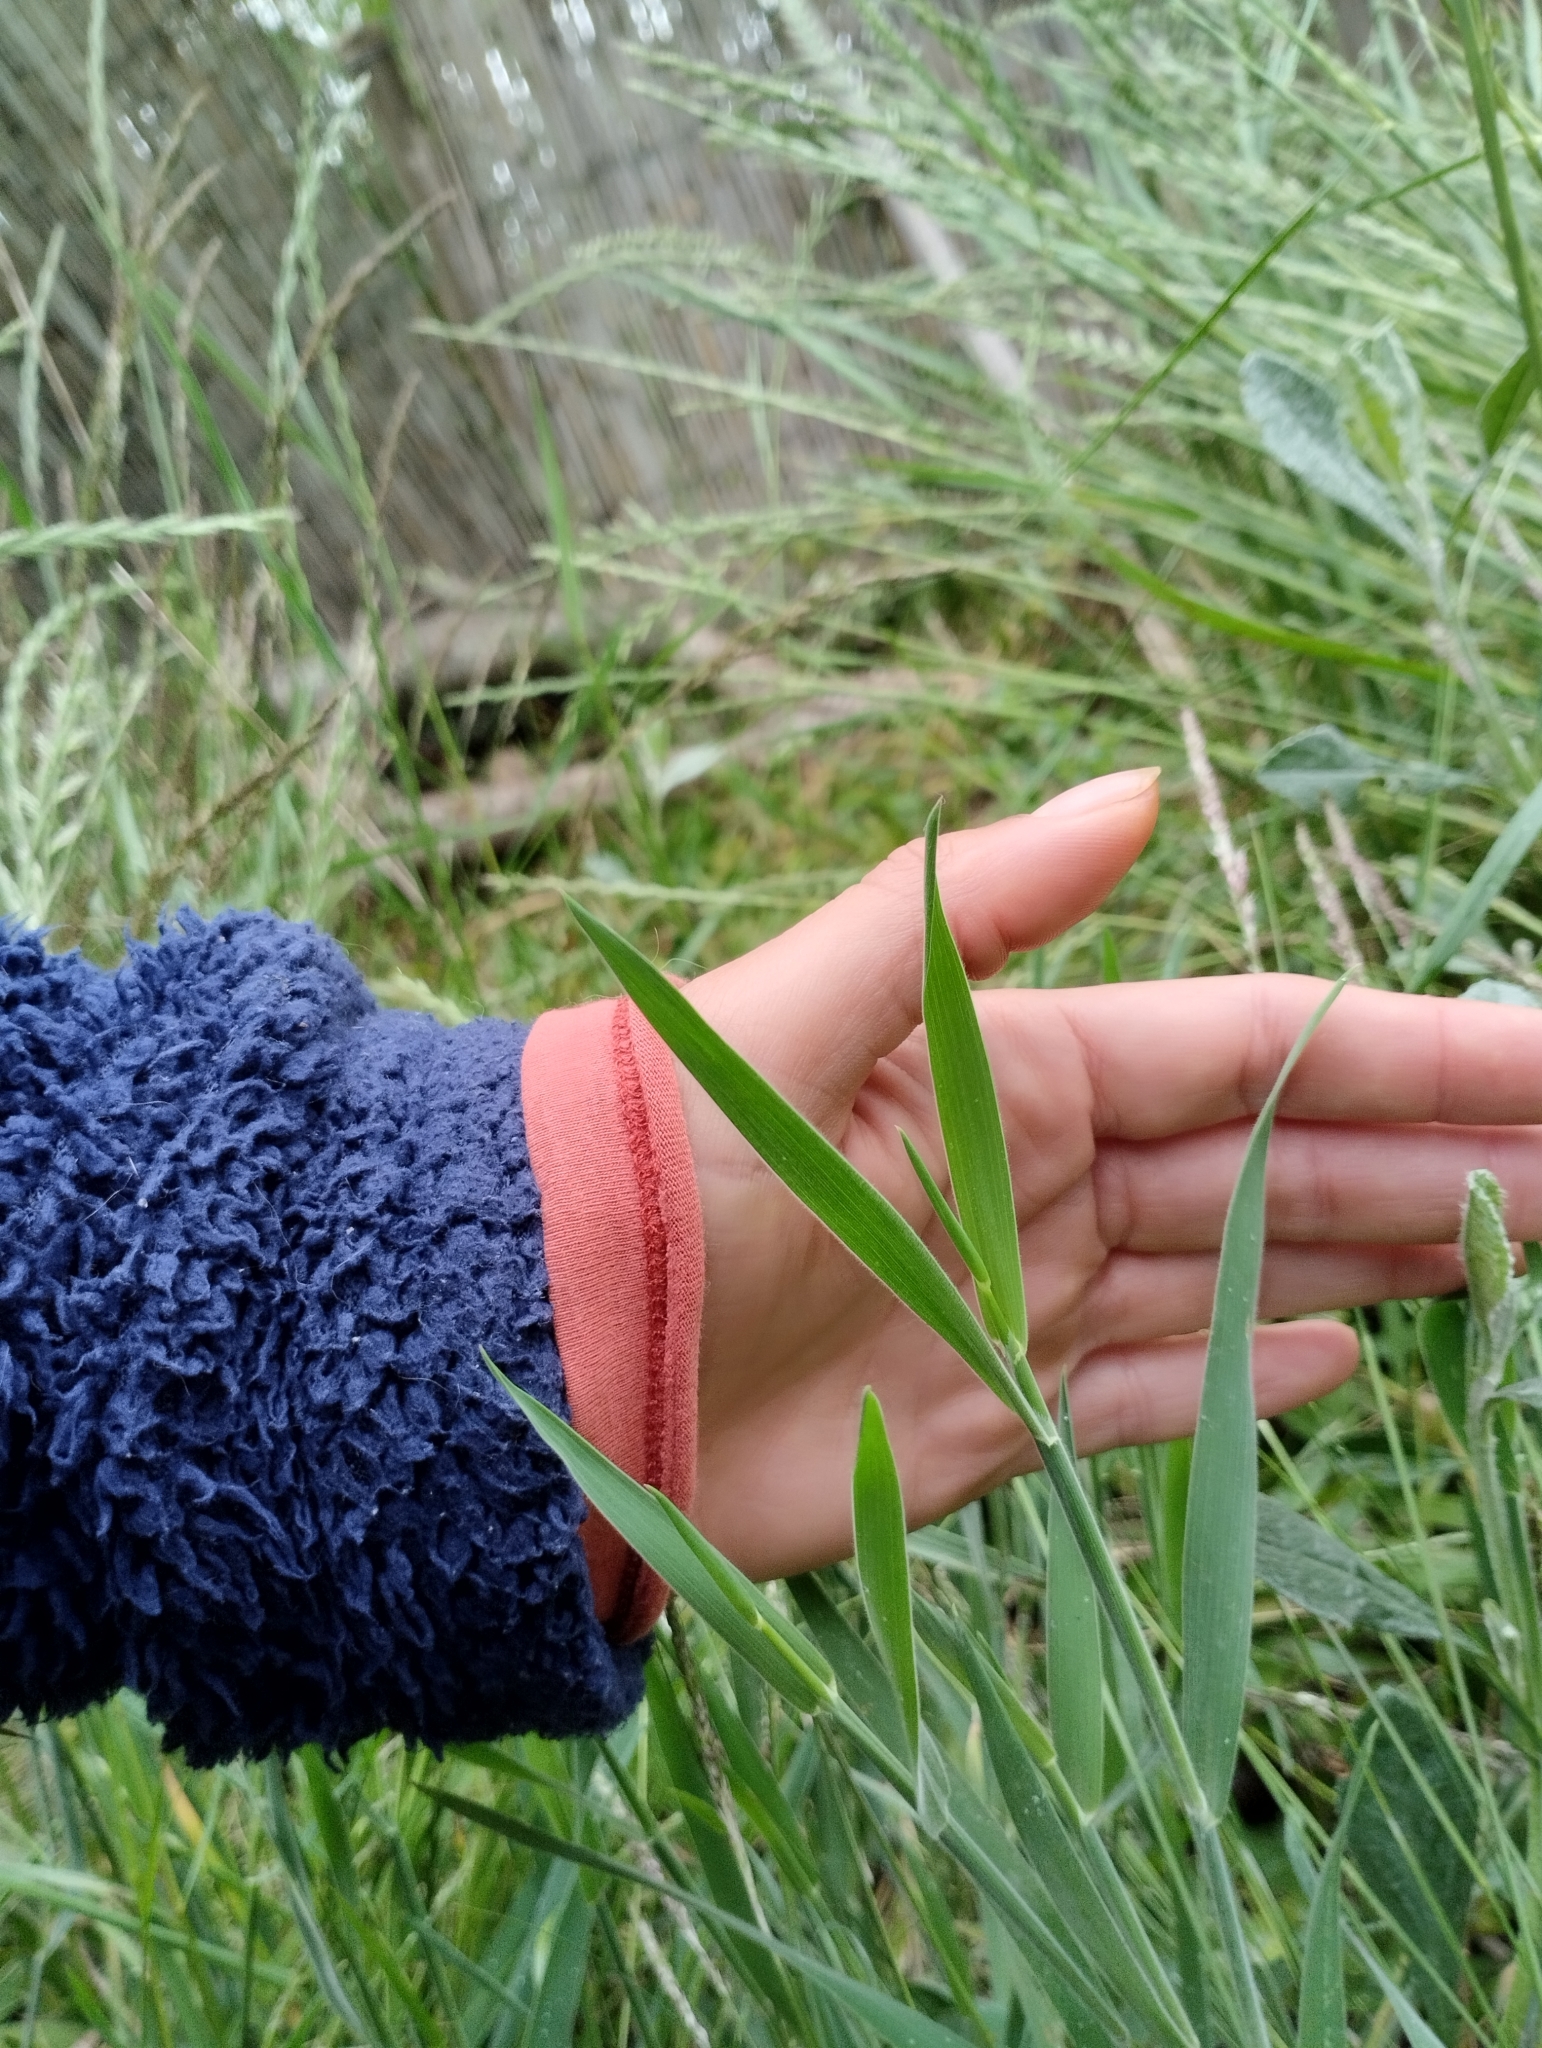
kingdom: Plantae
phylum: Tracheophyta
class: Liliopsida
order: Poales
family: Poaceae
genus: Holcus
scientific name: Holcus lanatus
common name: Yorkshire-fog
